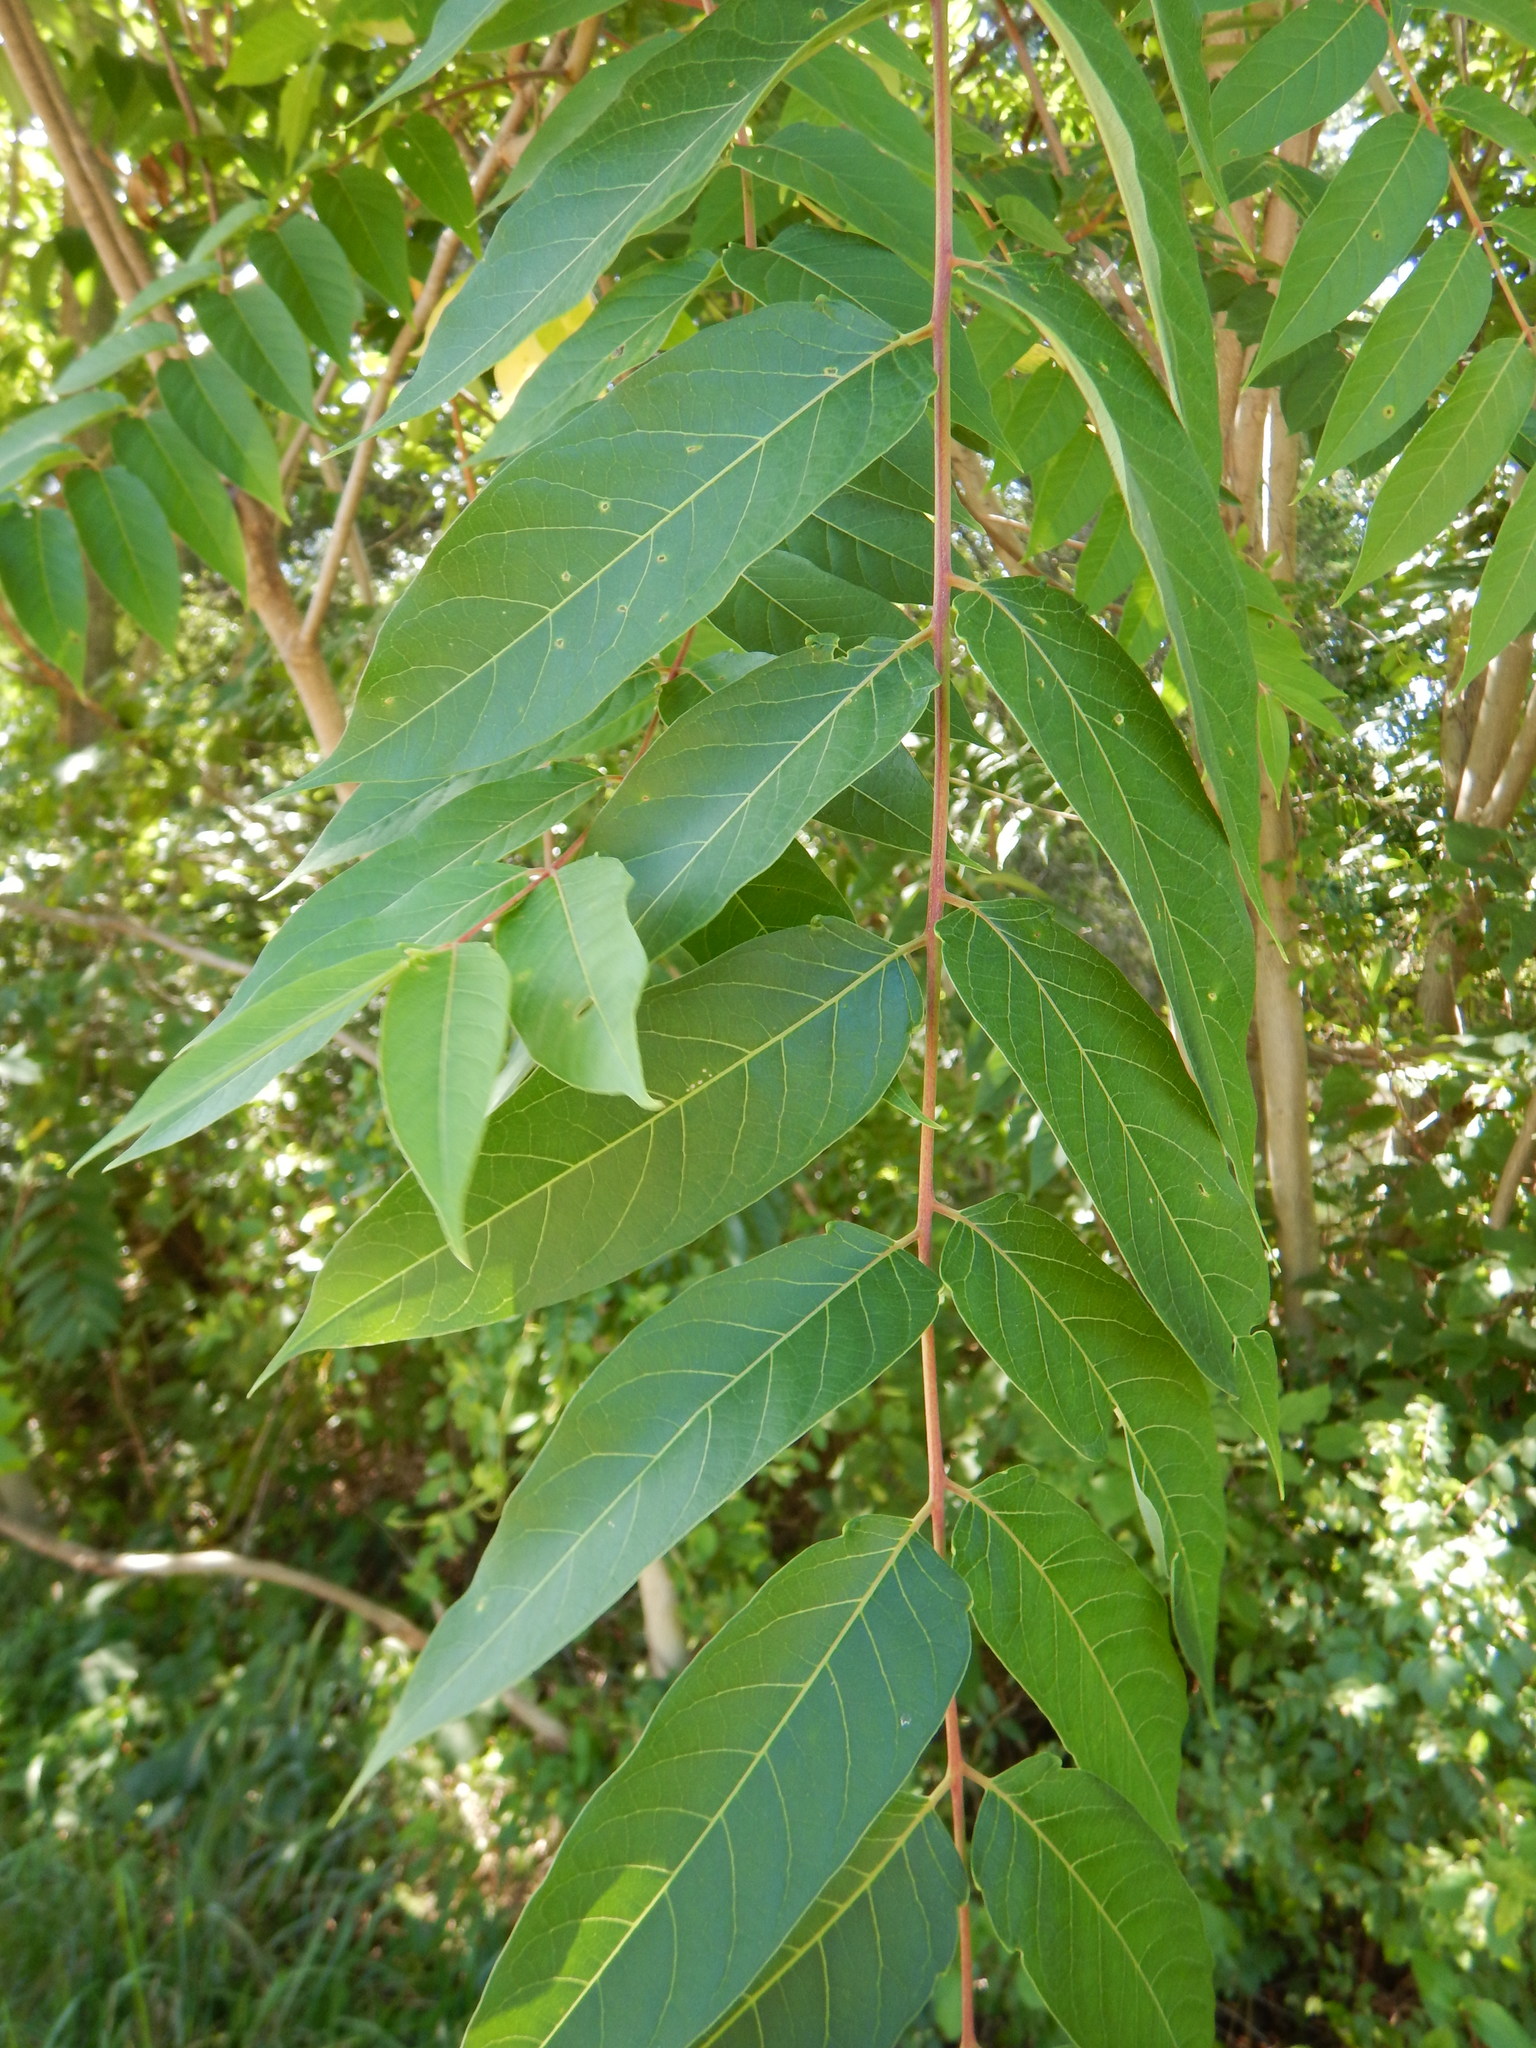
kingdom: Plantae
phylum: Tracheophyta
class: Magnoliopsida
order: Sapindales
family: Simaroubaceae
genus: Ailanthus
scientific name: Ailanthus altissima
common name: Tree-of-heaven
